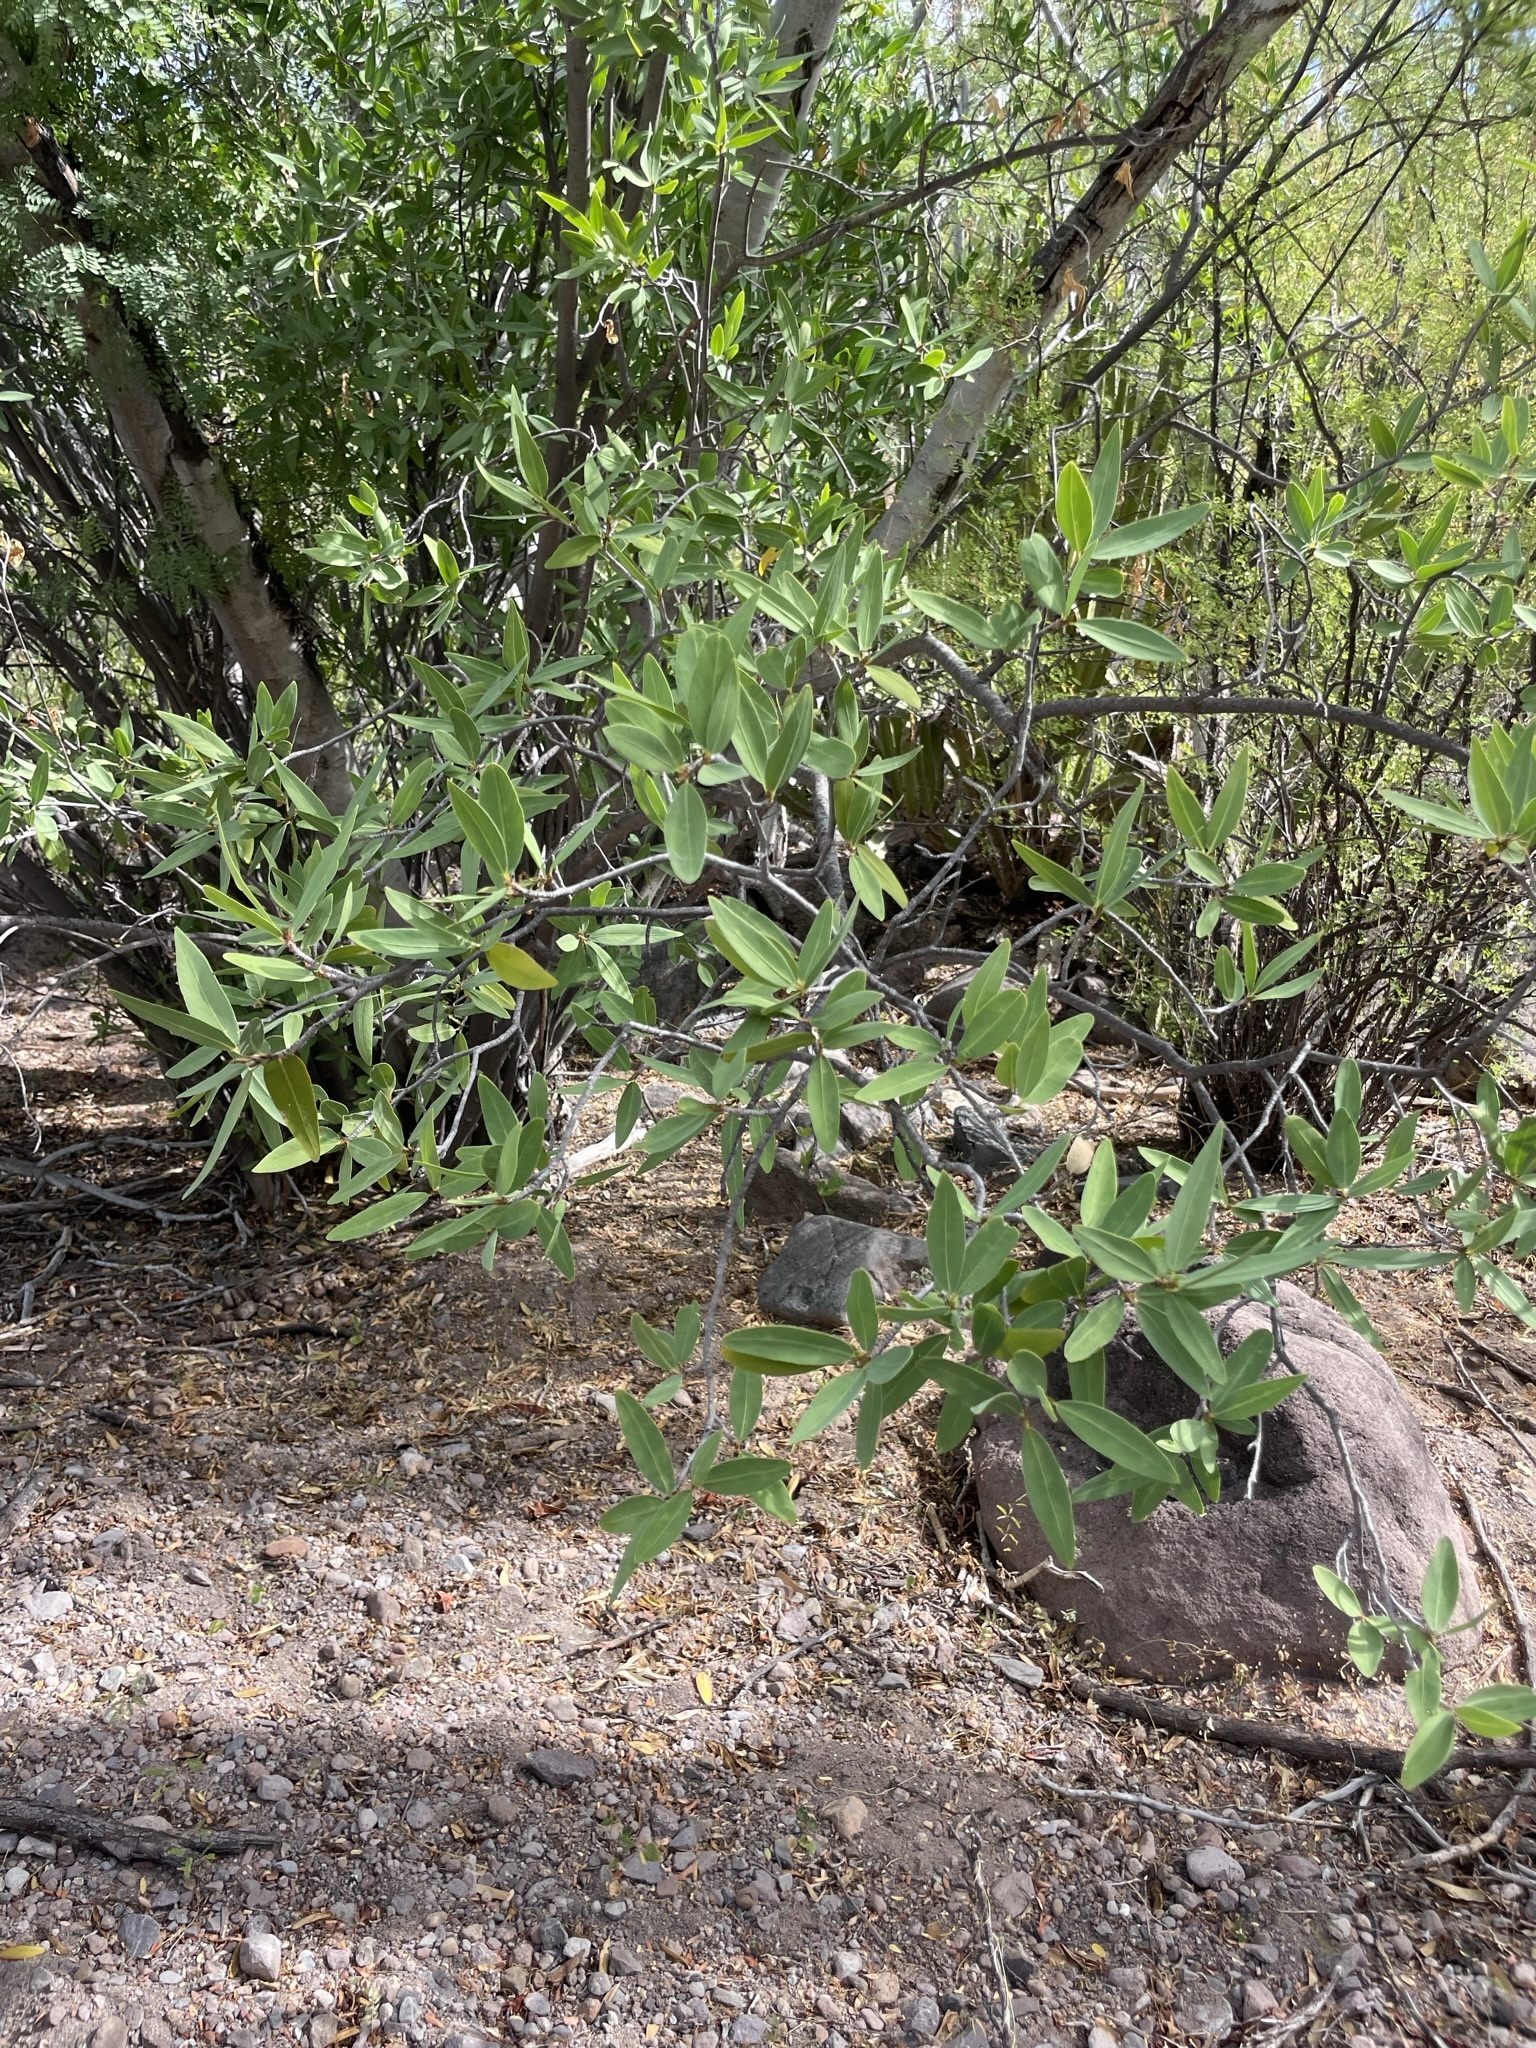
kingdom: Plantae
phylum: Tracheophyta
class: Magnoliopsida
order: Malpighiales
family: Euphorbiaceae
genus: Pleradenophora
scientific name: Pleradenophora bilocularis
